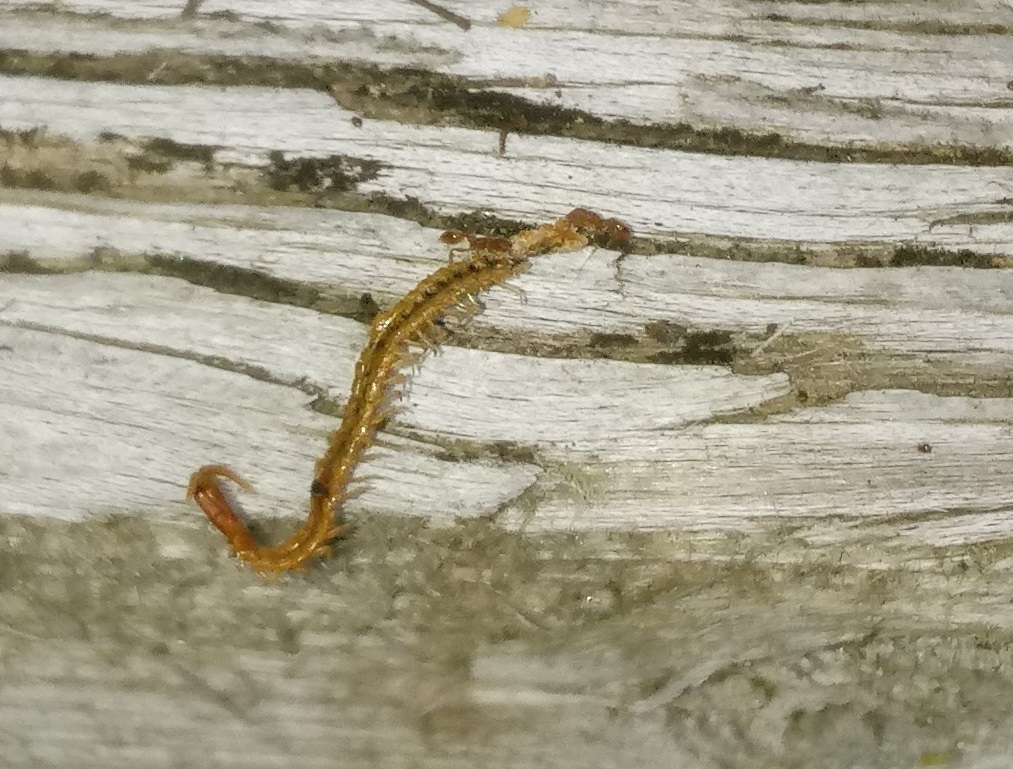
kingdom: Animalia
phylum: Arthropoda
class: Insecta
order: Hymenoptera
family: Formicidae
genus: Temnothorax
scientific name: Temnothorax curvispinosus
